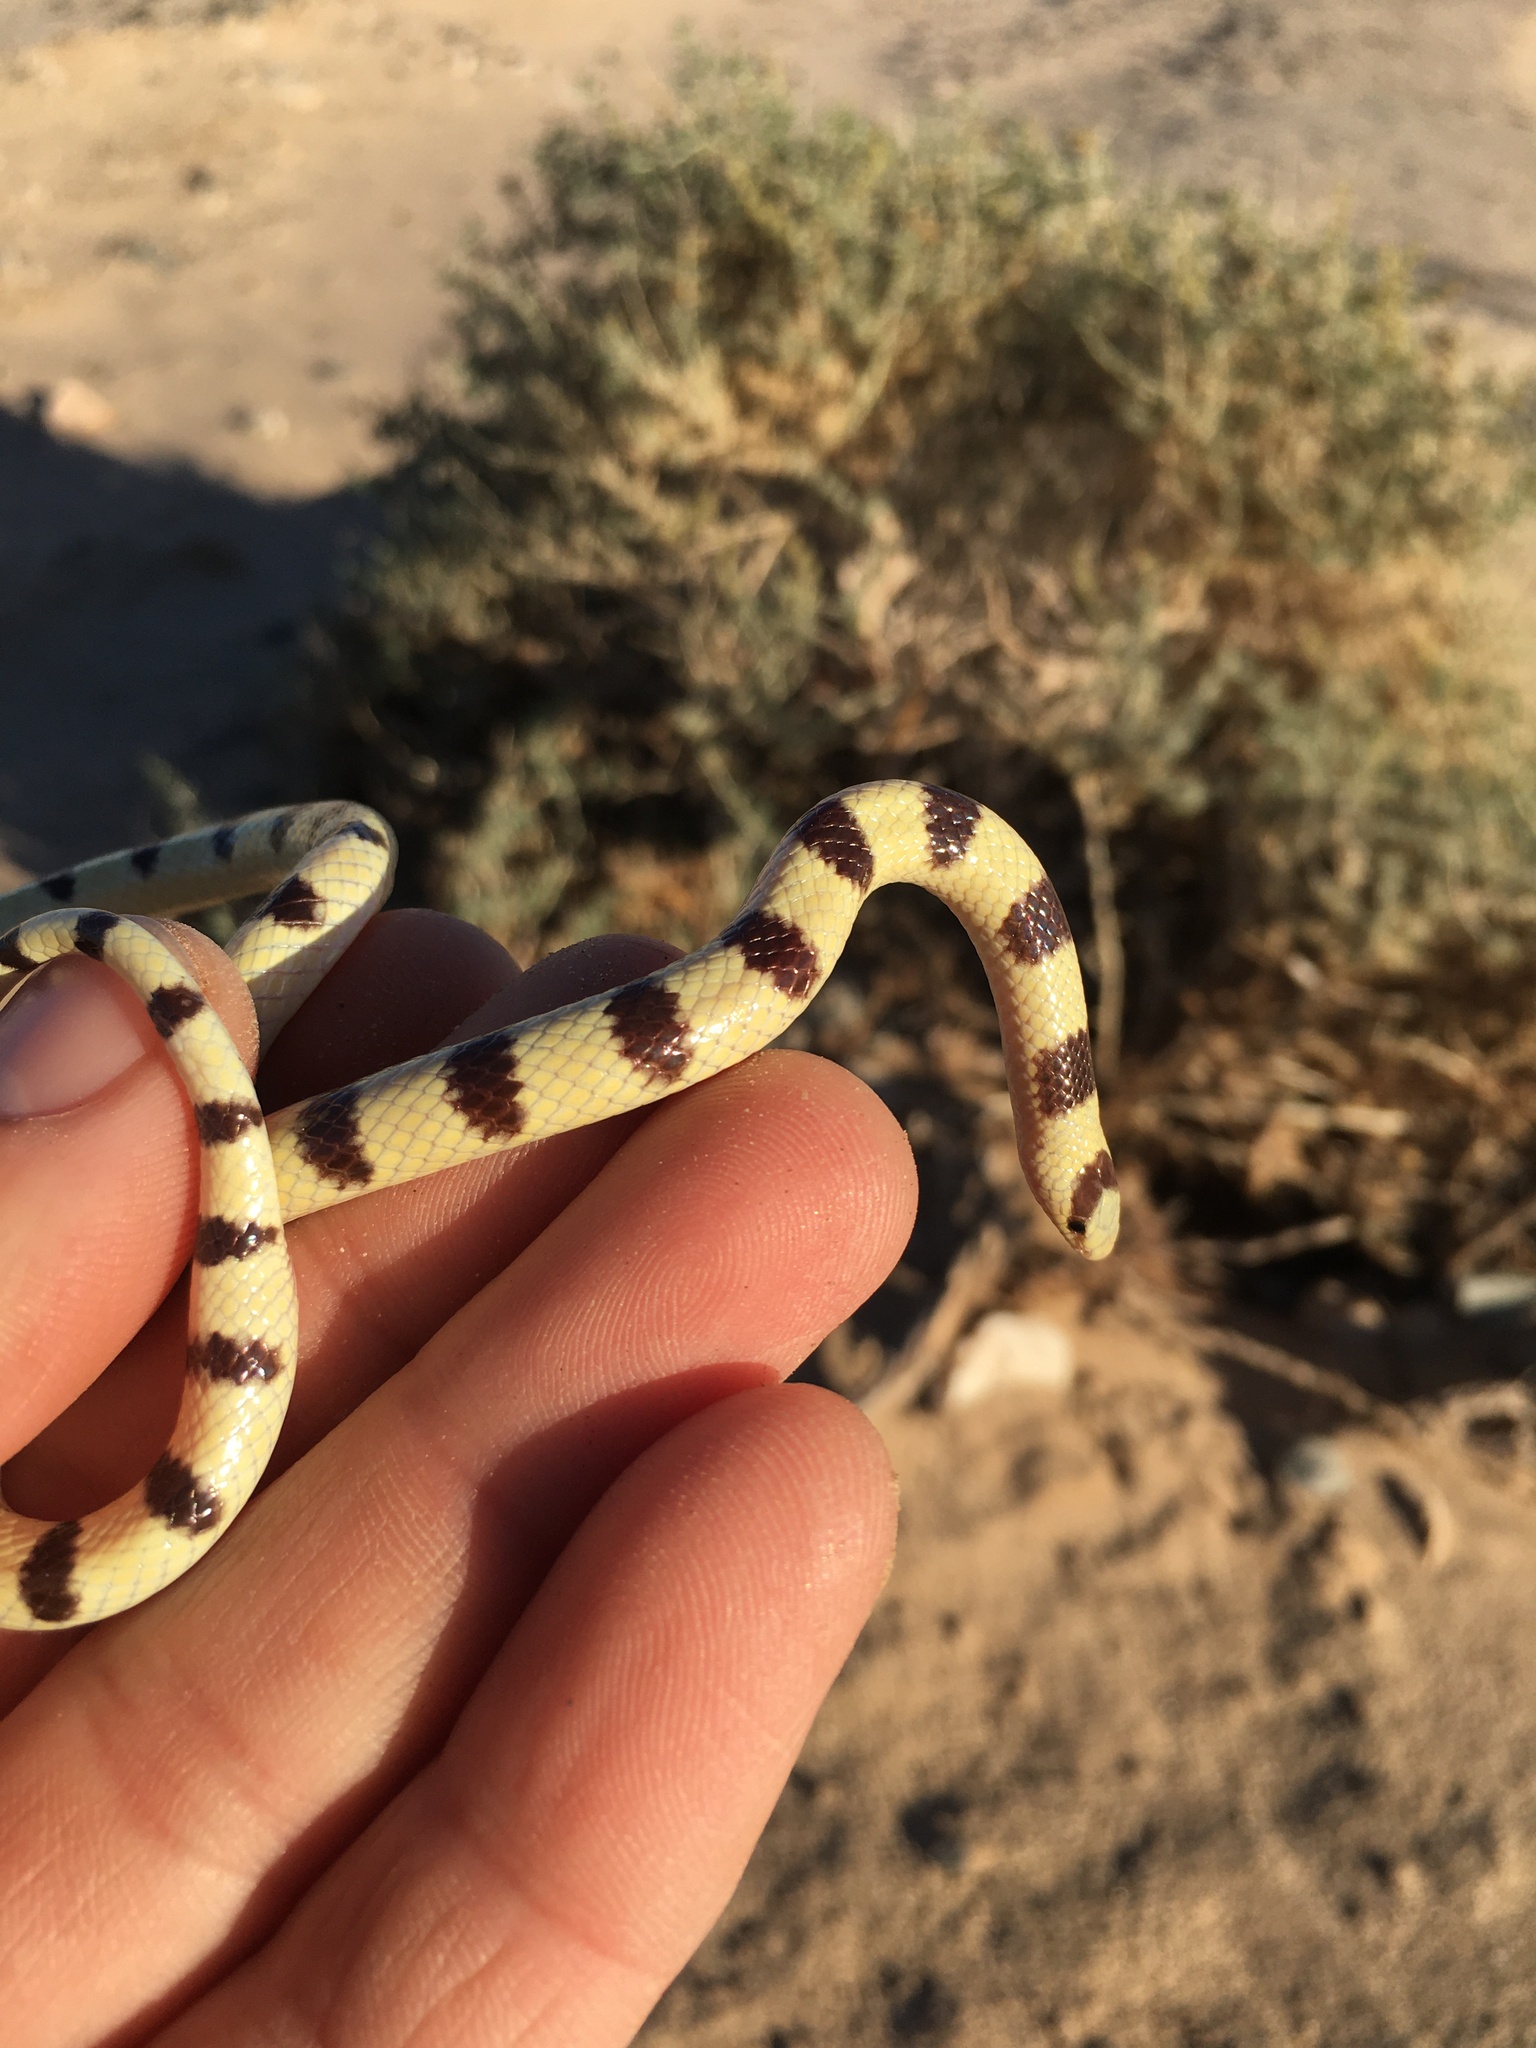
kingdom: Animalia
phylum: Chordata
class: Squamata
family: Colubridae
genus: Sonora
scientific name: Sonora occipitalis
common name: Western shovelnose snake
